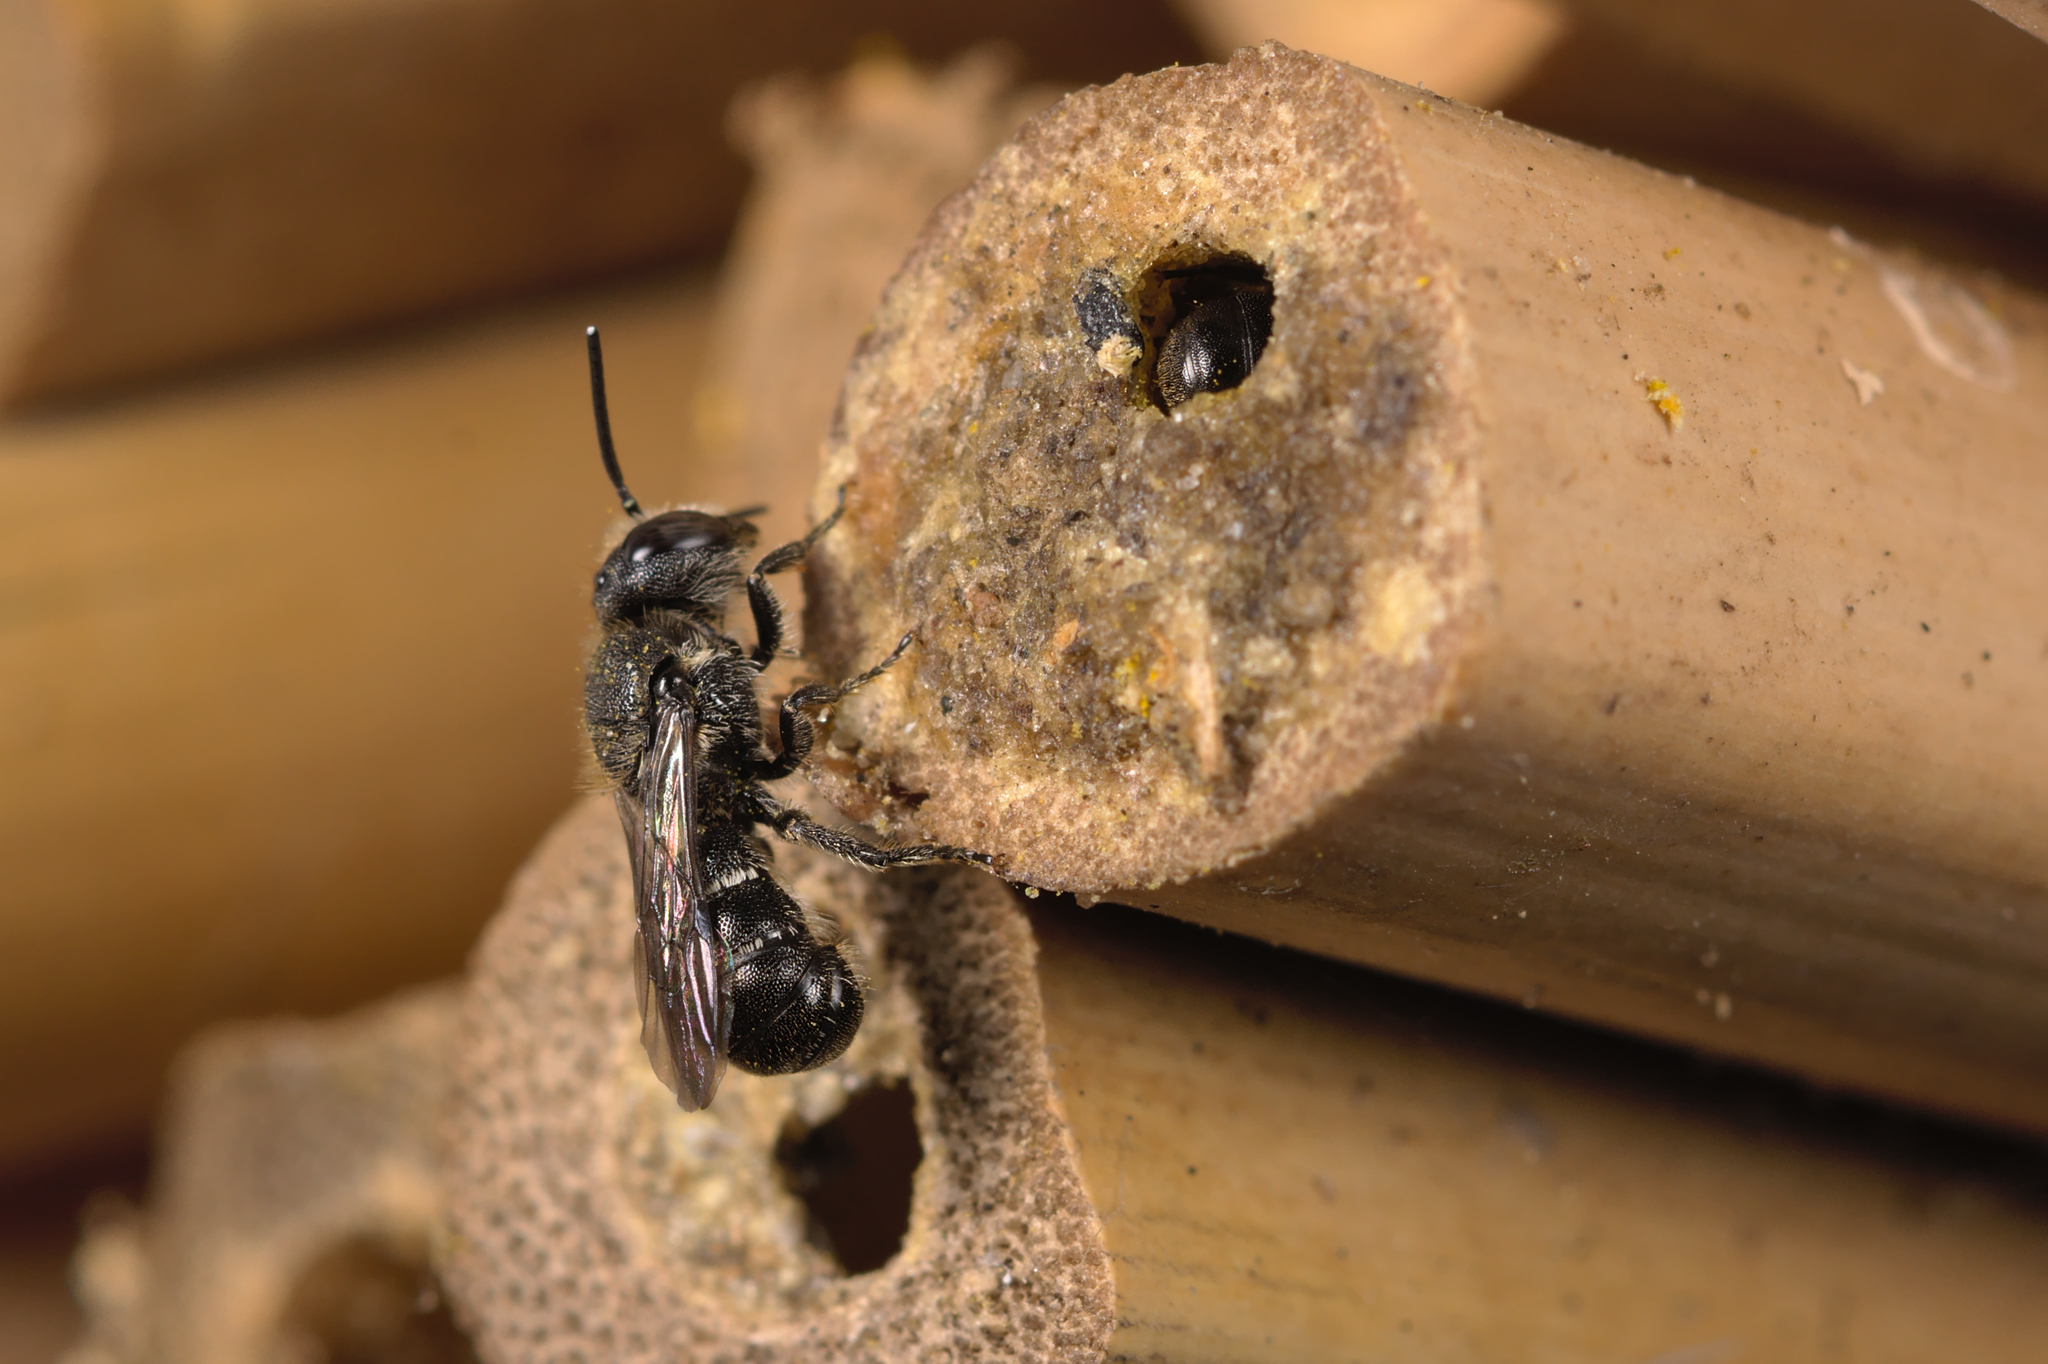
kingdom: Animalia
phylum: Arthropoda
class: Insecta
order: Hymenoptera
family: Megachilidae
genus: Heriades
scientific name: Heriades truncorum
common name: Ridge-saddled carpenter bee
